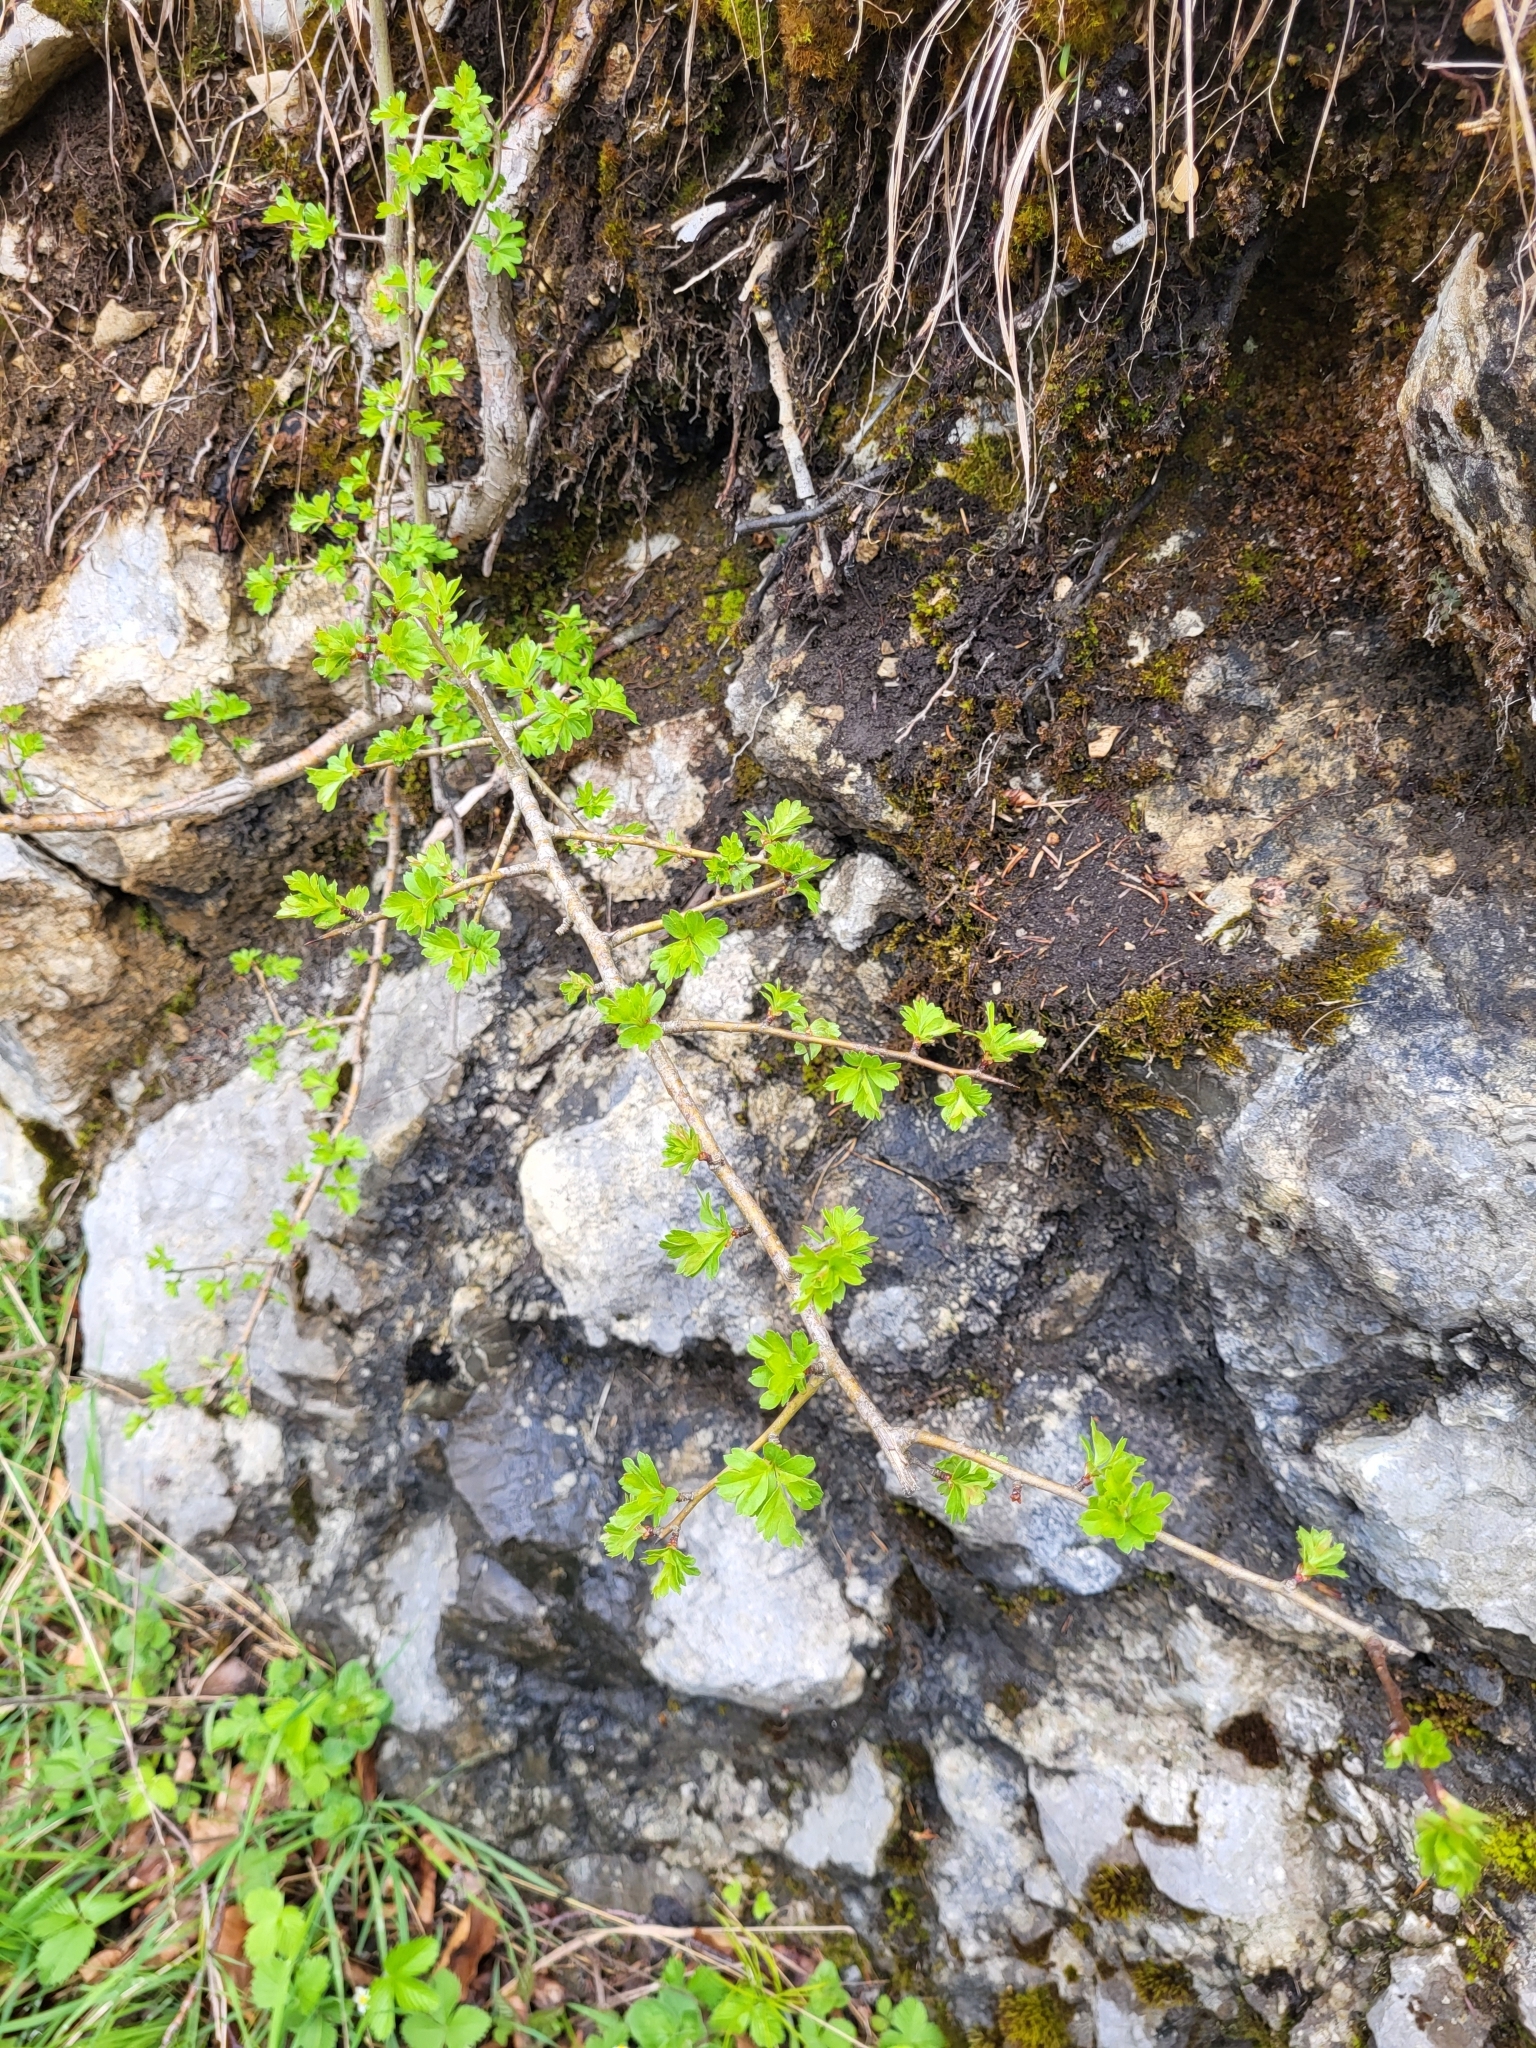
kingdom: Plantae
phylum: Tracheophyta
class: Magnoliopsida
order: Rosales
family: Rosaceae
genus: Crataegus
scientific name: Crataegus monogyna
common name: Hawthorn
